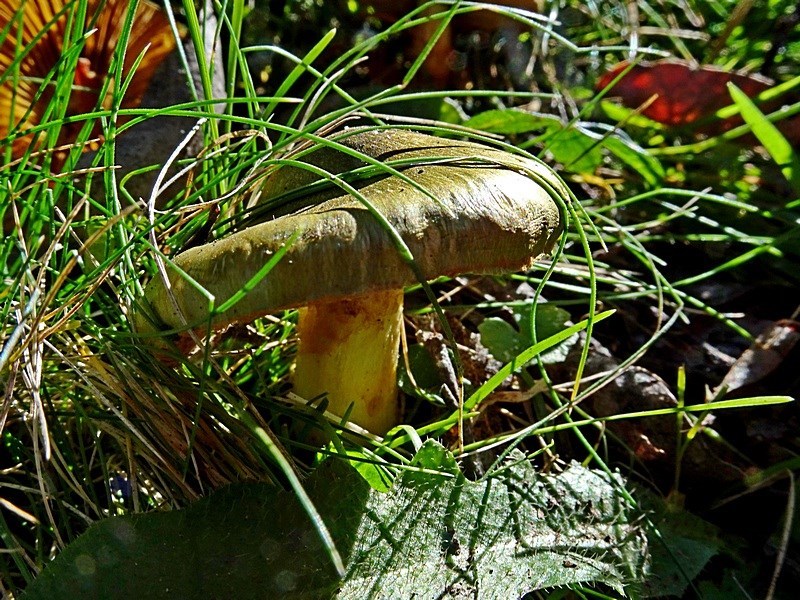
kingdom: Fungi
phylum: Basidiomycota
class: Agaricomycetes
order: Agaricales
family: Cortinariaceae
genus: Cortinarius
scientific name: Cortinarius austrovenetus
